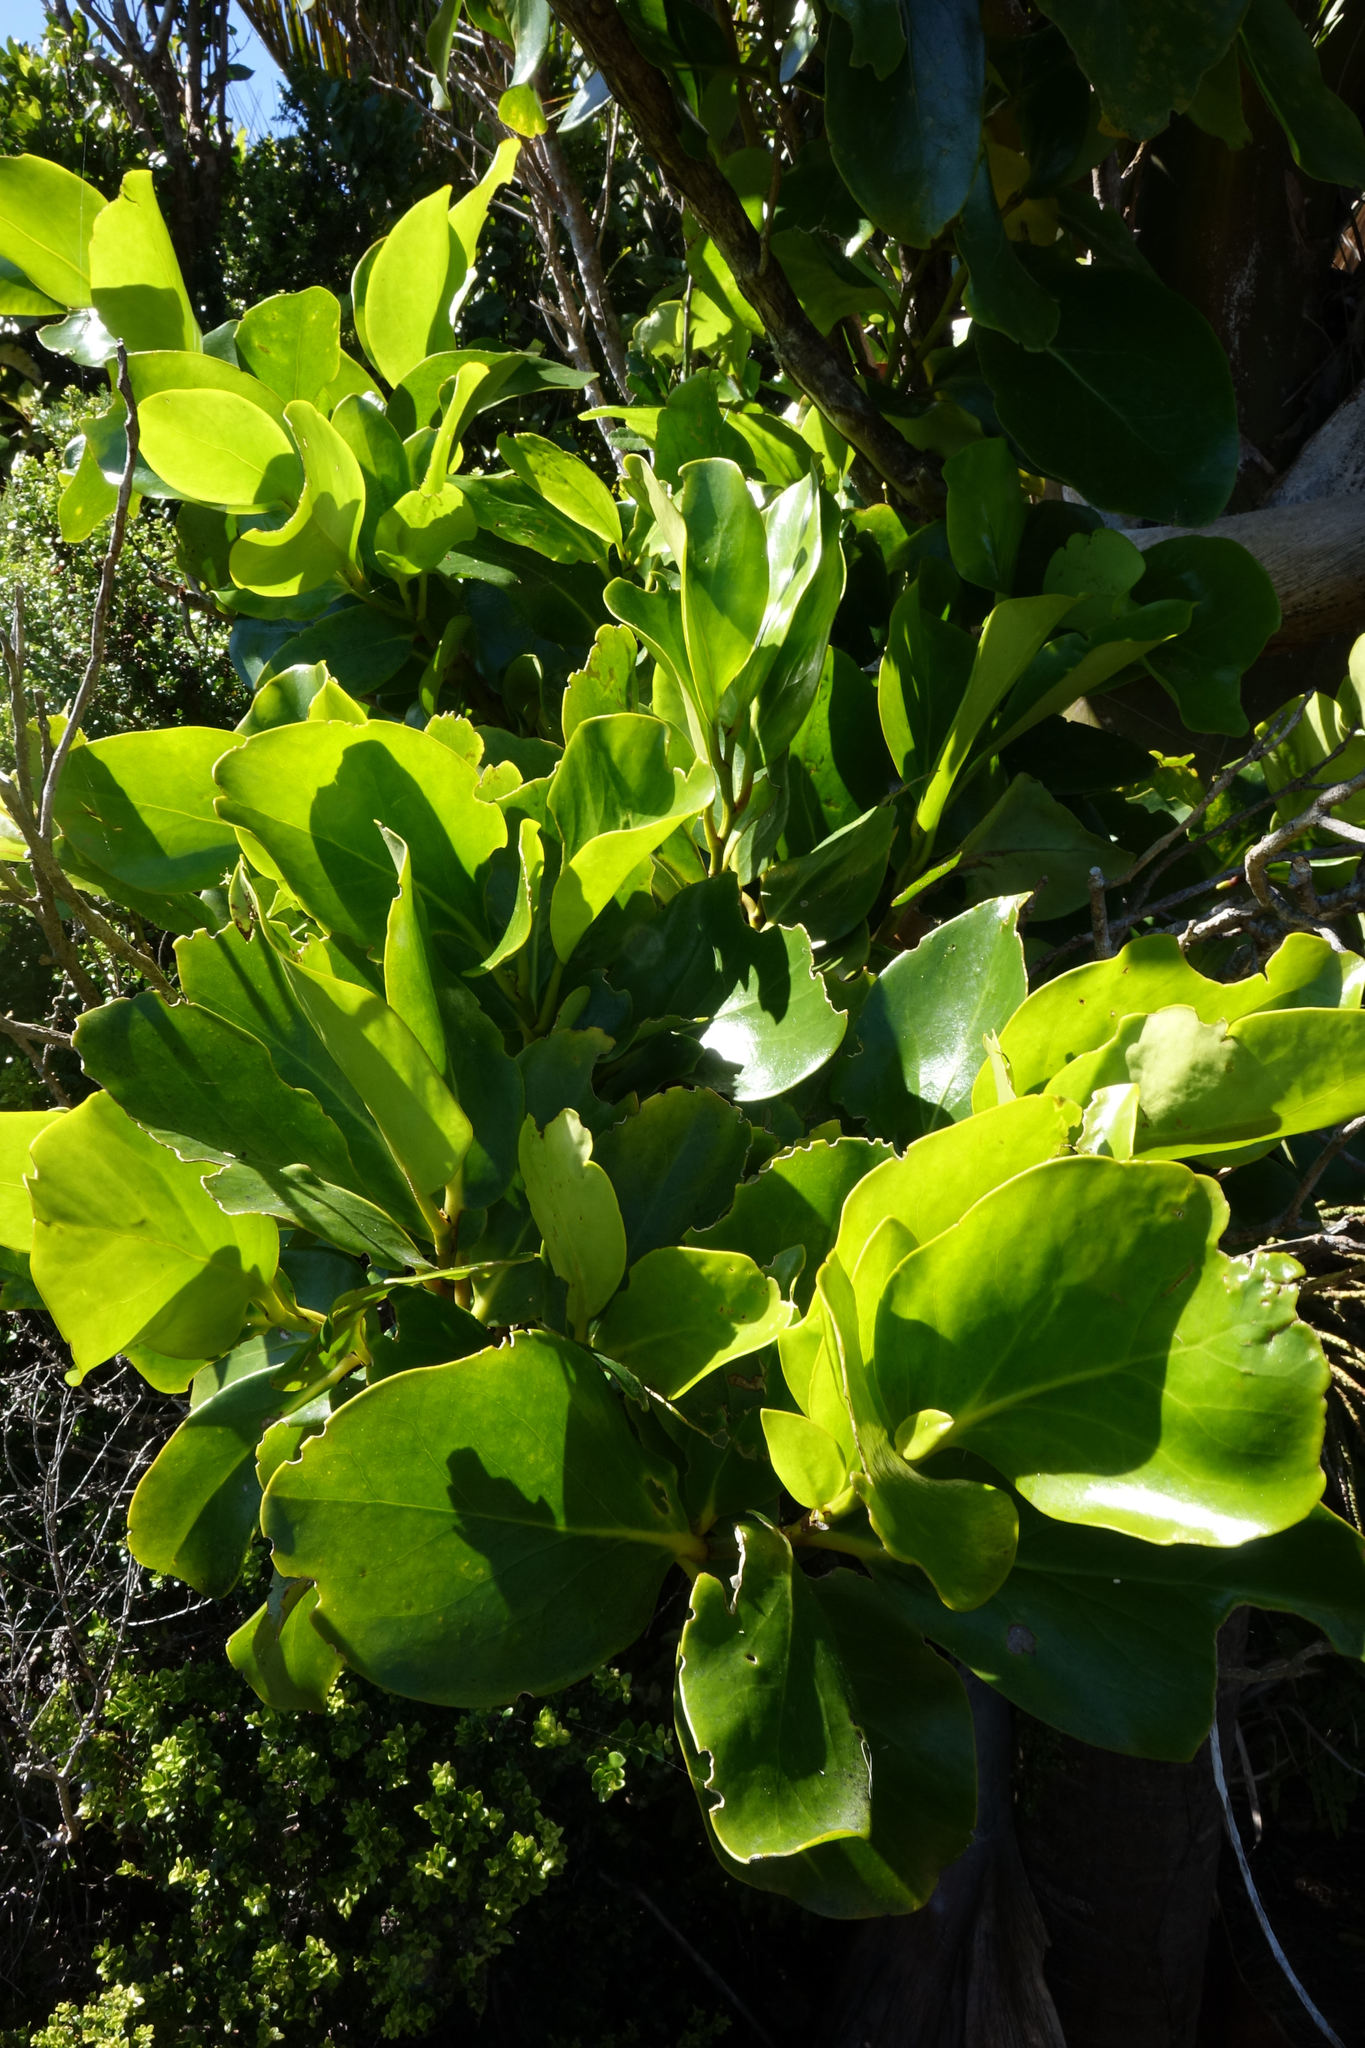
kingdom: Plantae
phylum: Tracheophyta
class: Magnoliopsida
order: Apiales
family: Griseliniaceae
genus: Griselinia
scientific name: Griselinia lucida
